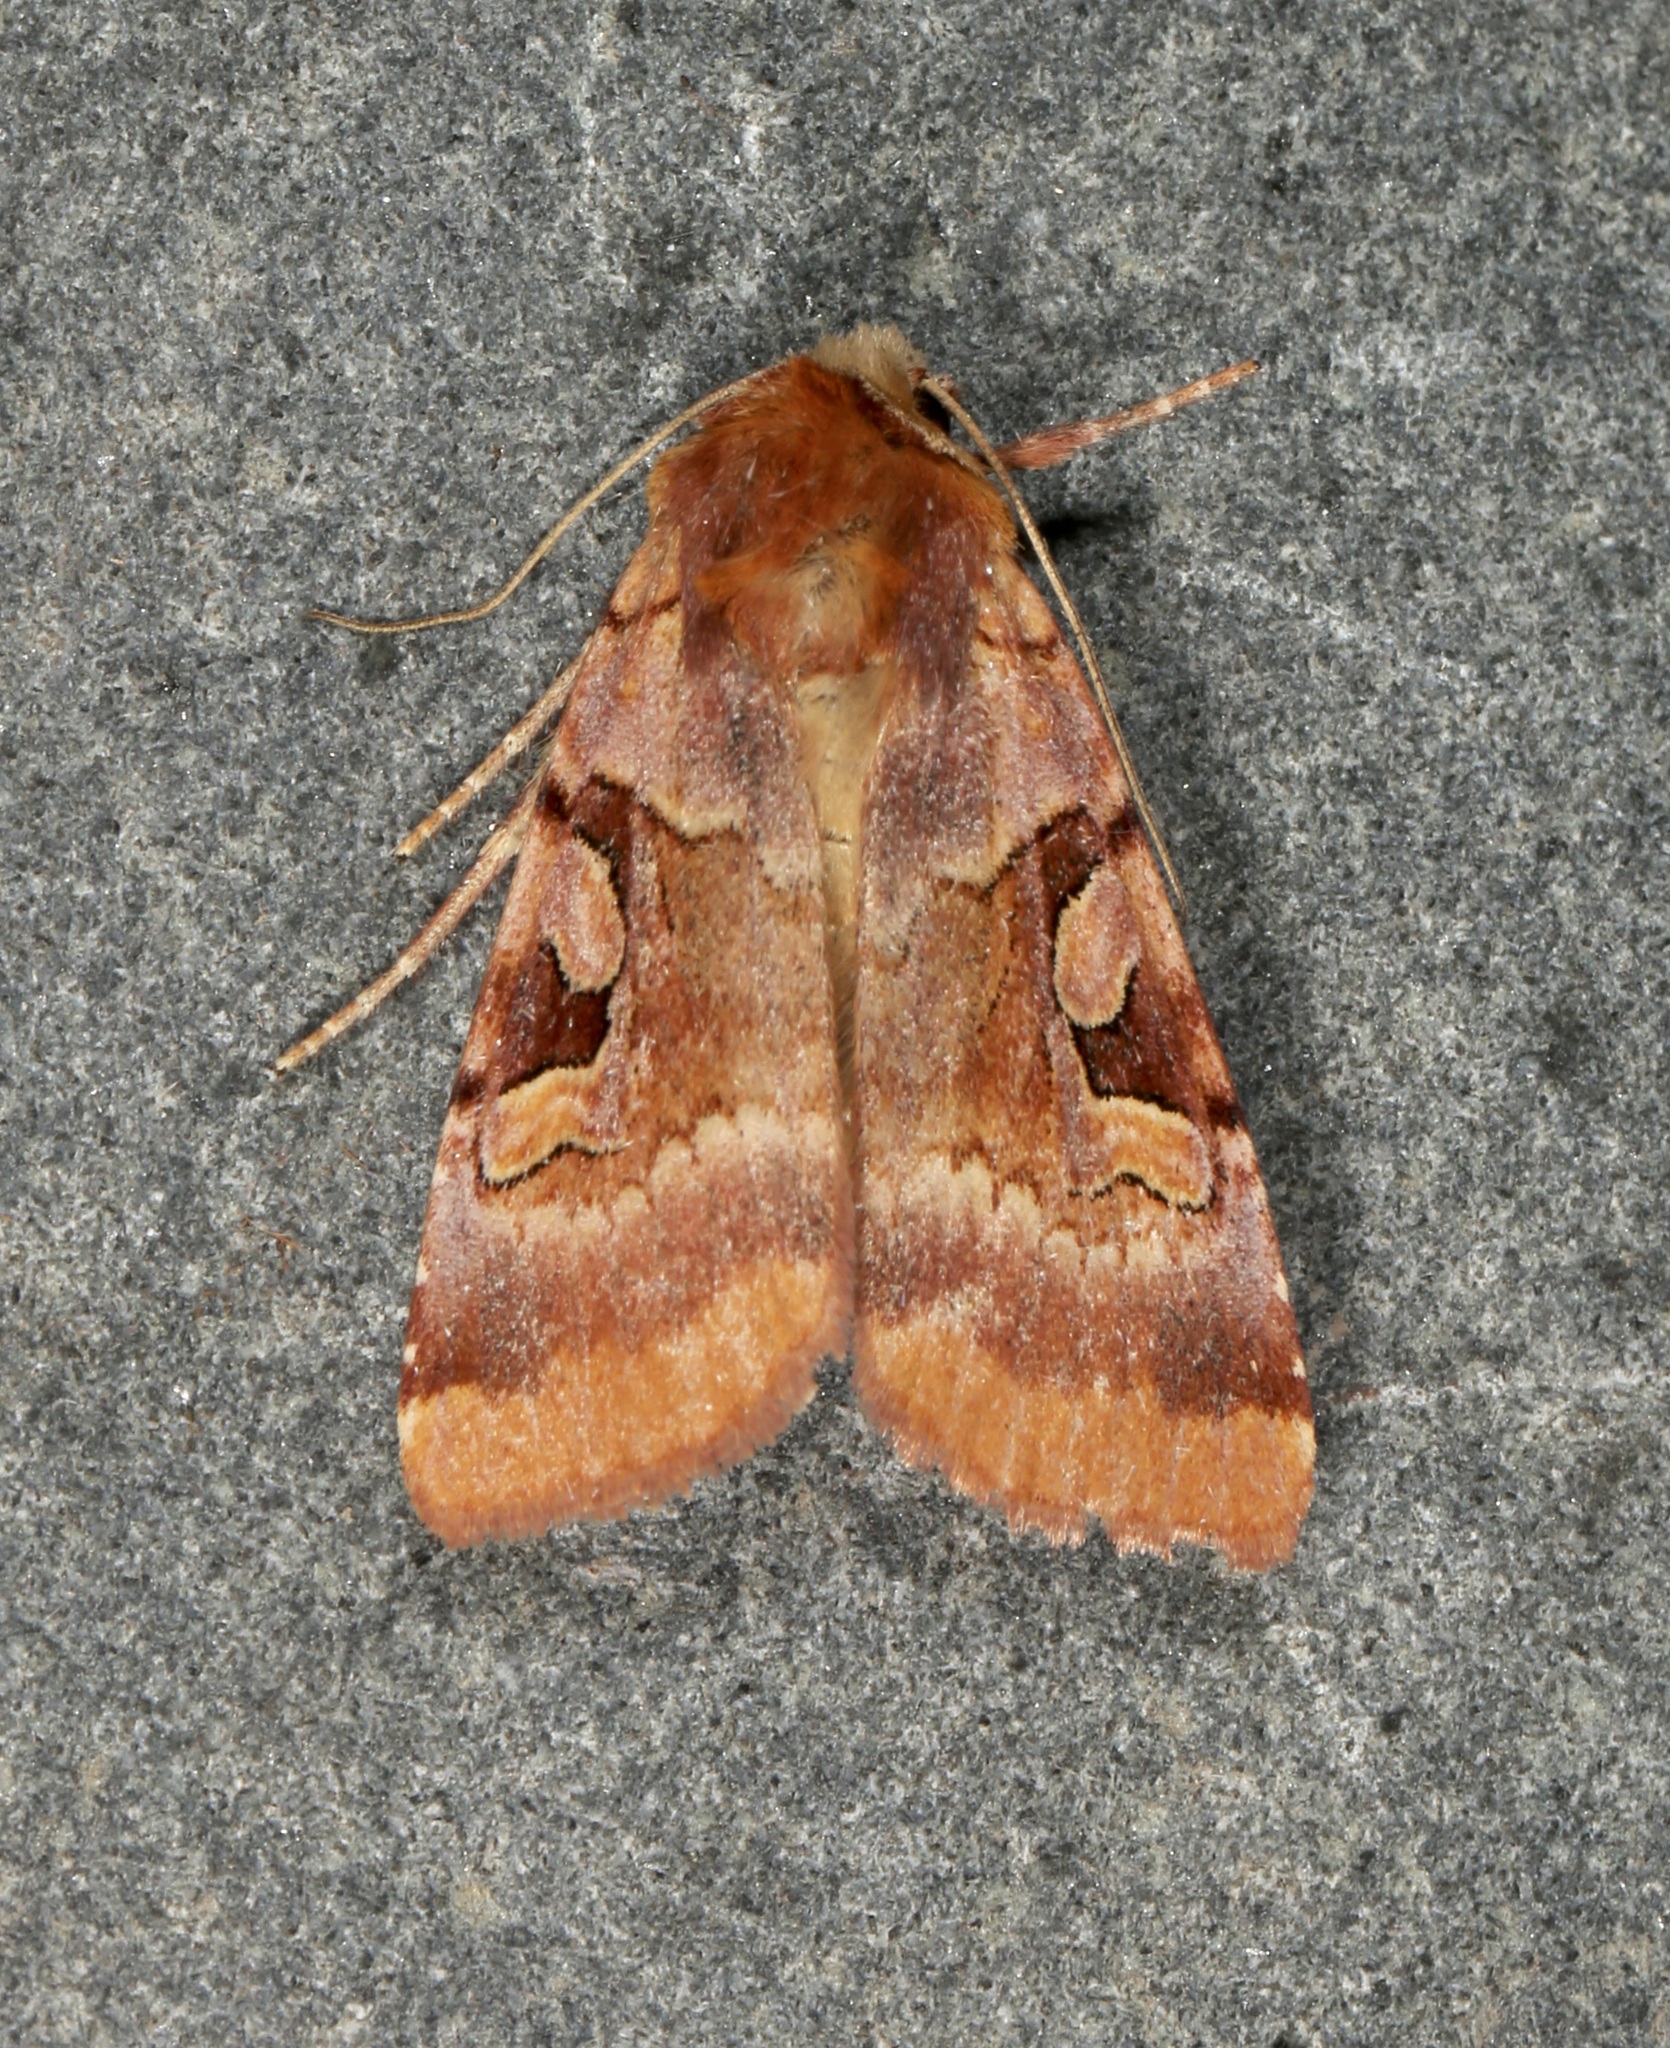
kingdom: Animalia
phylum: Arthropoda
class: Insecta
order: Lepidoptera
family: Noctuidae
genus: Xestia
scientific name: Xestia oblata
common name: Rosy dart
